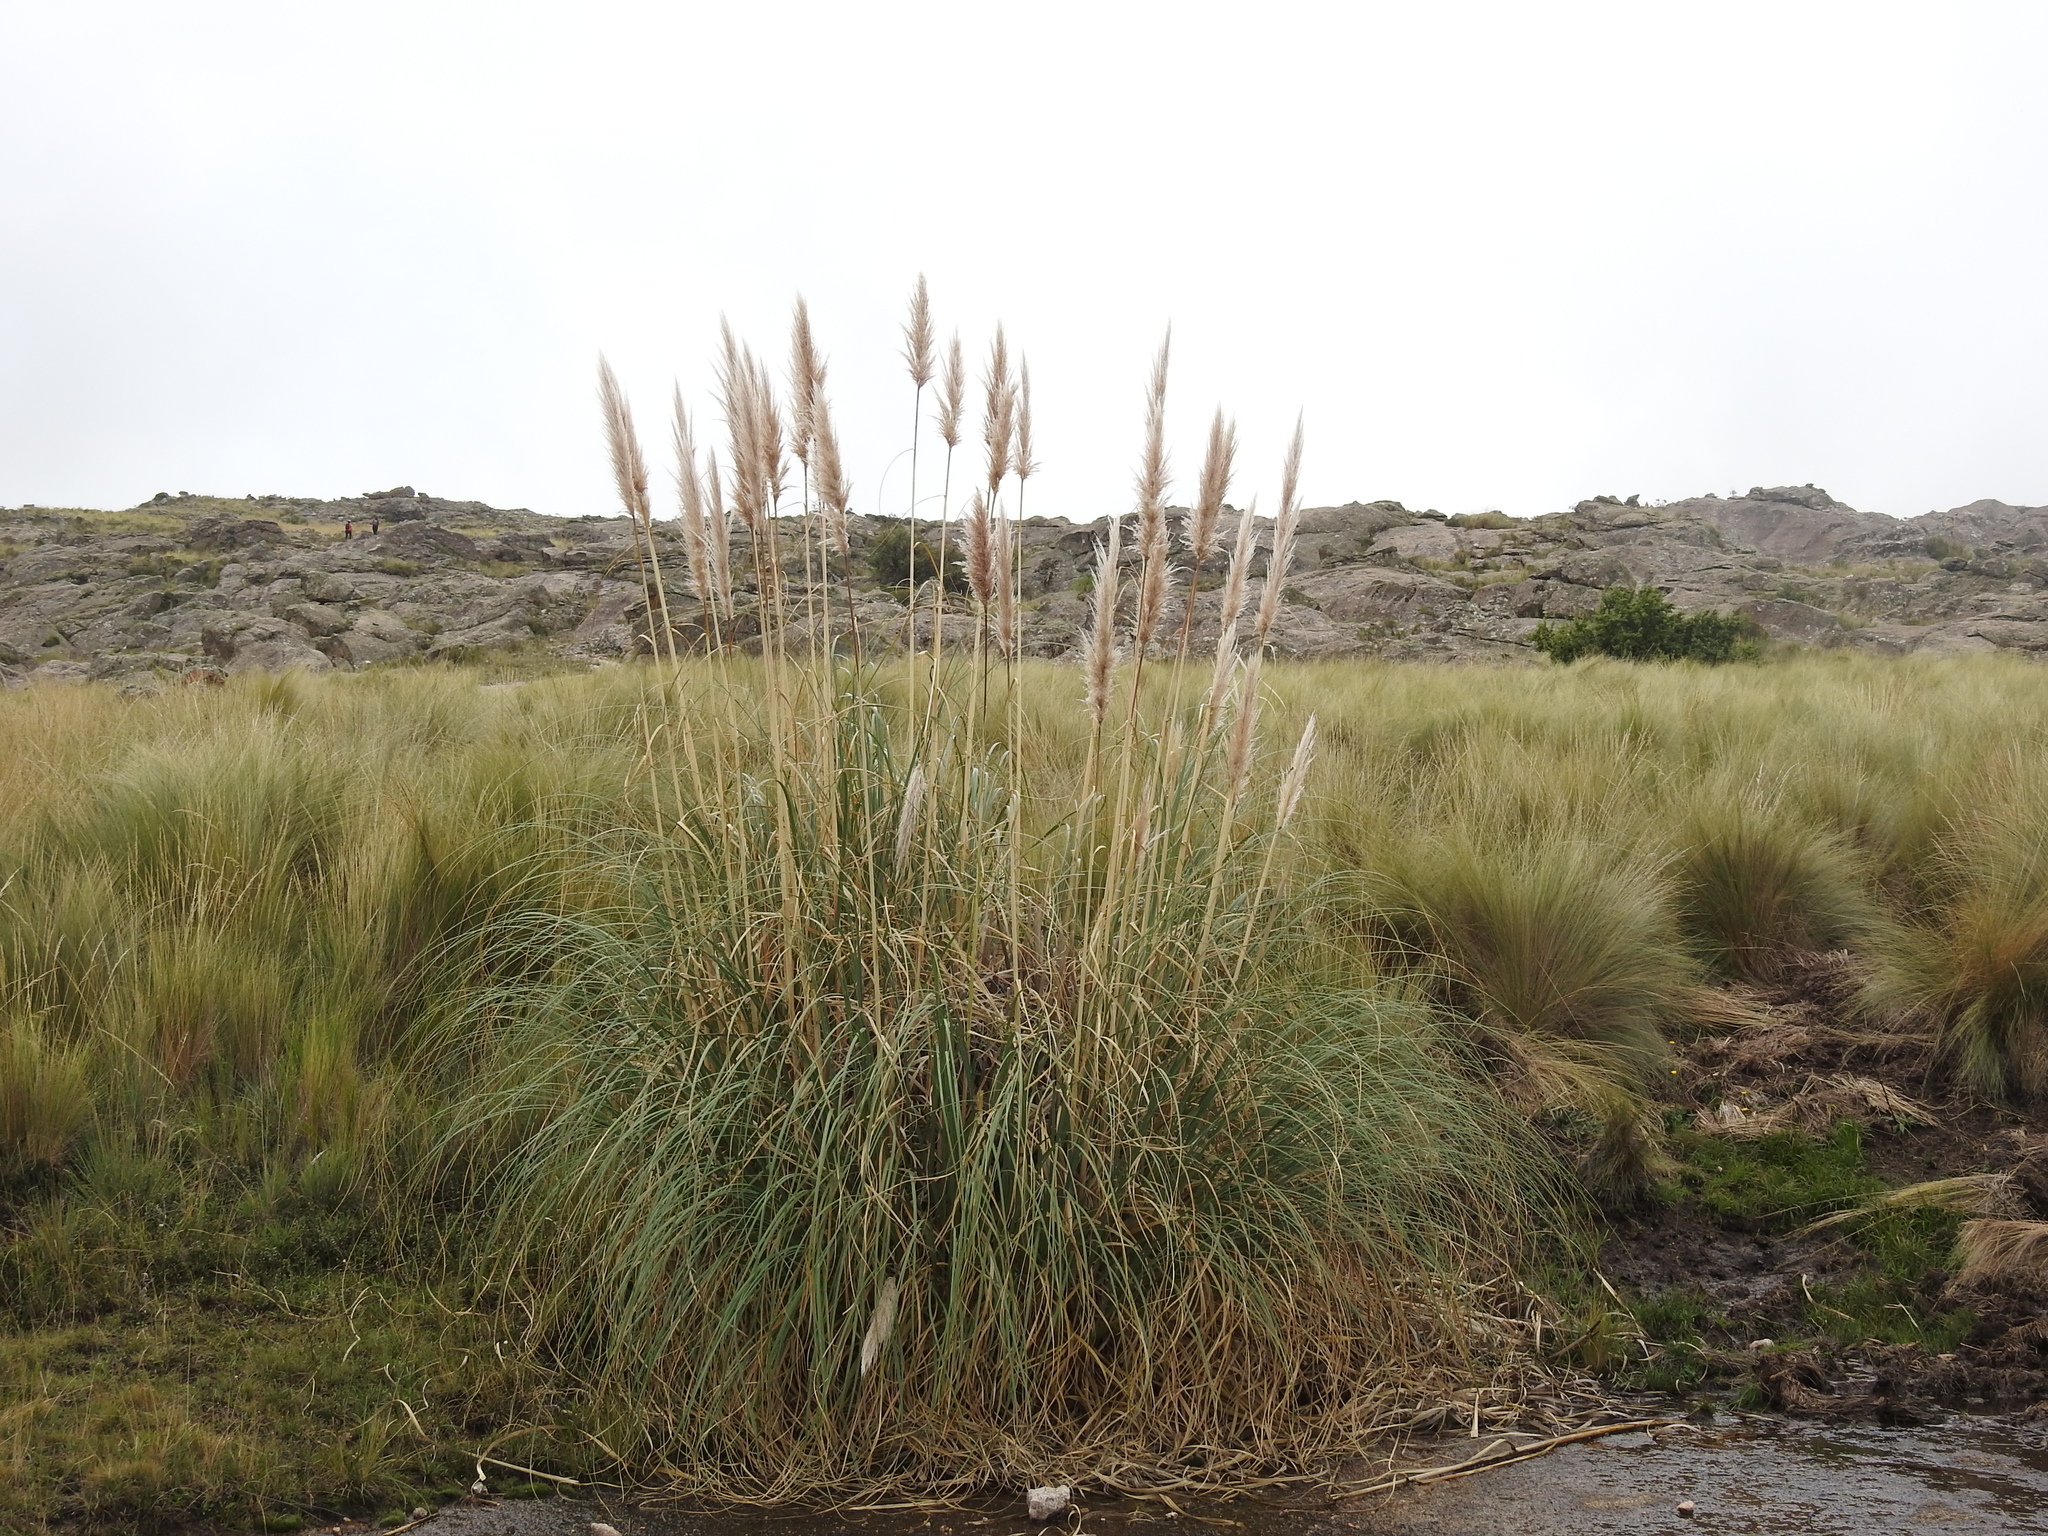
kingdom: Plantae
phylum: Tracheophyta
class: Liliopsida
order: Poales
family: Poaceae
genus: Cortaderia
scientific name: Cortaderia selloana
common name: Uruguayan pampas grass
